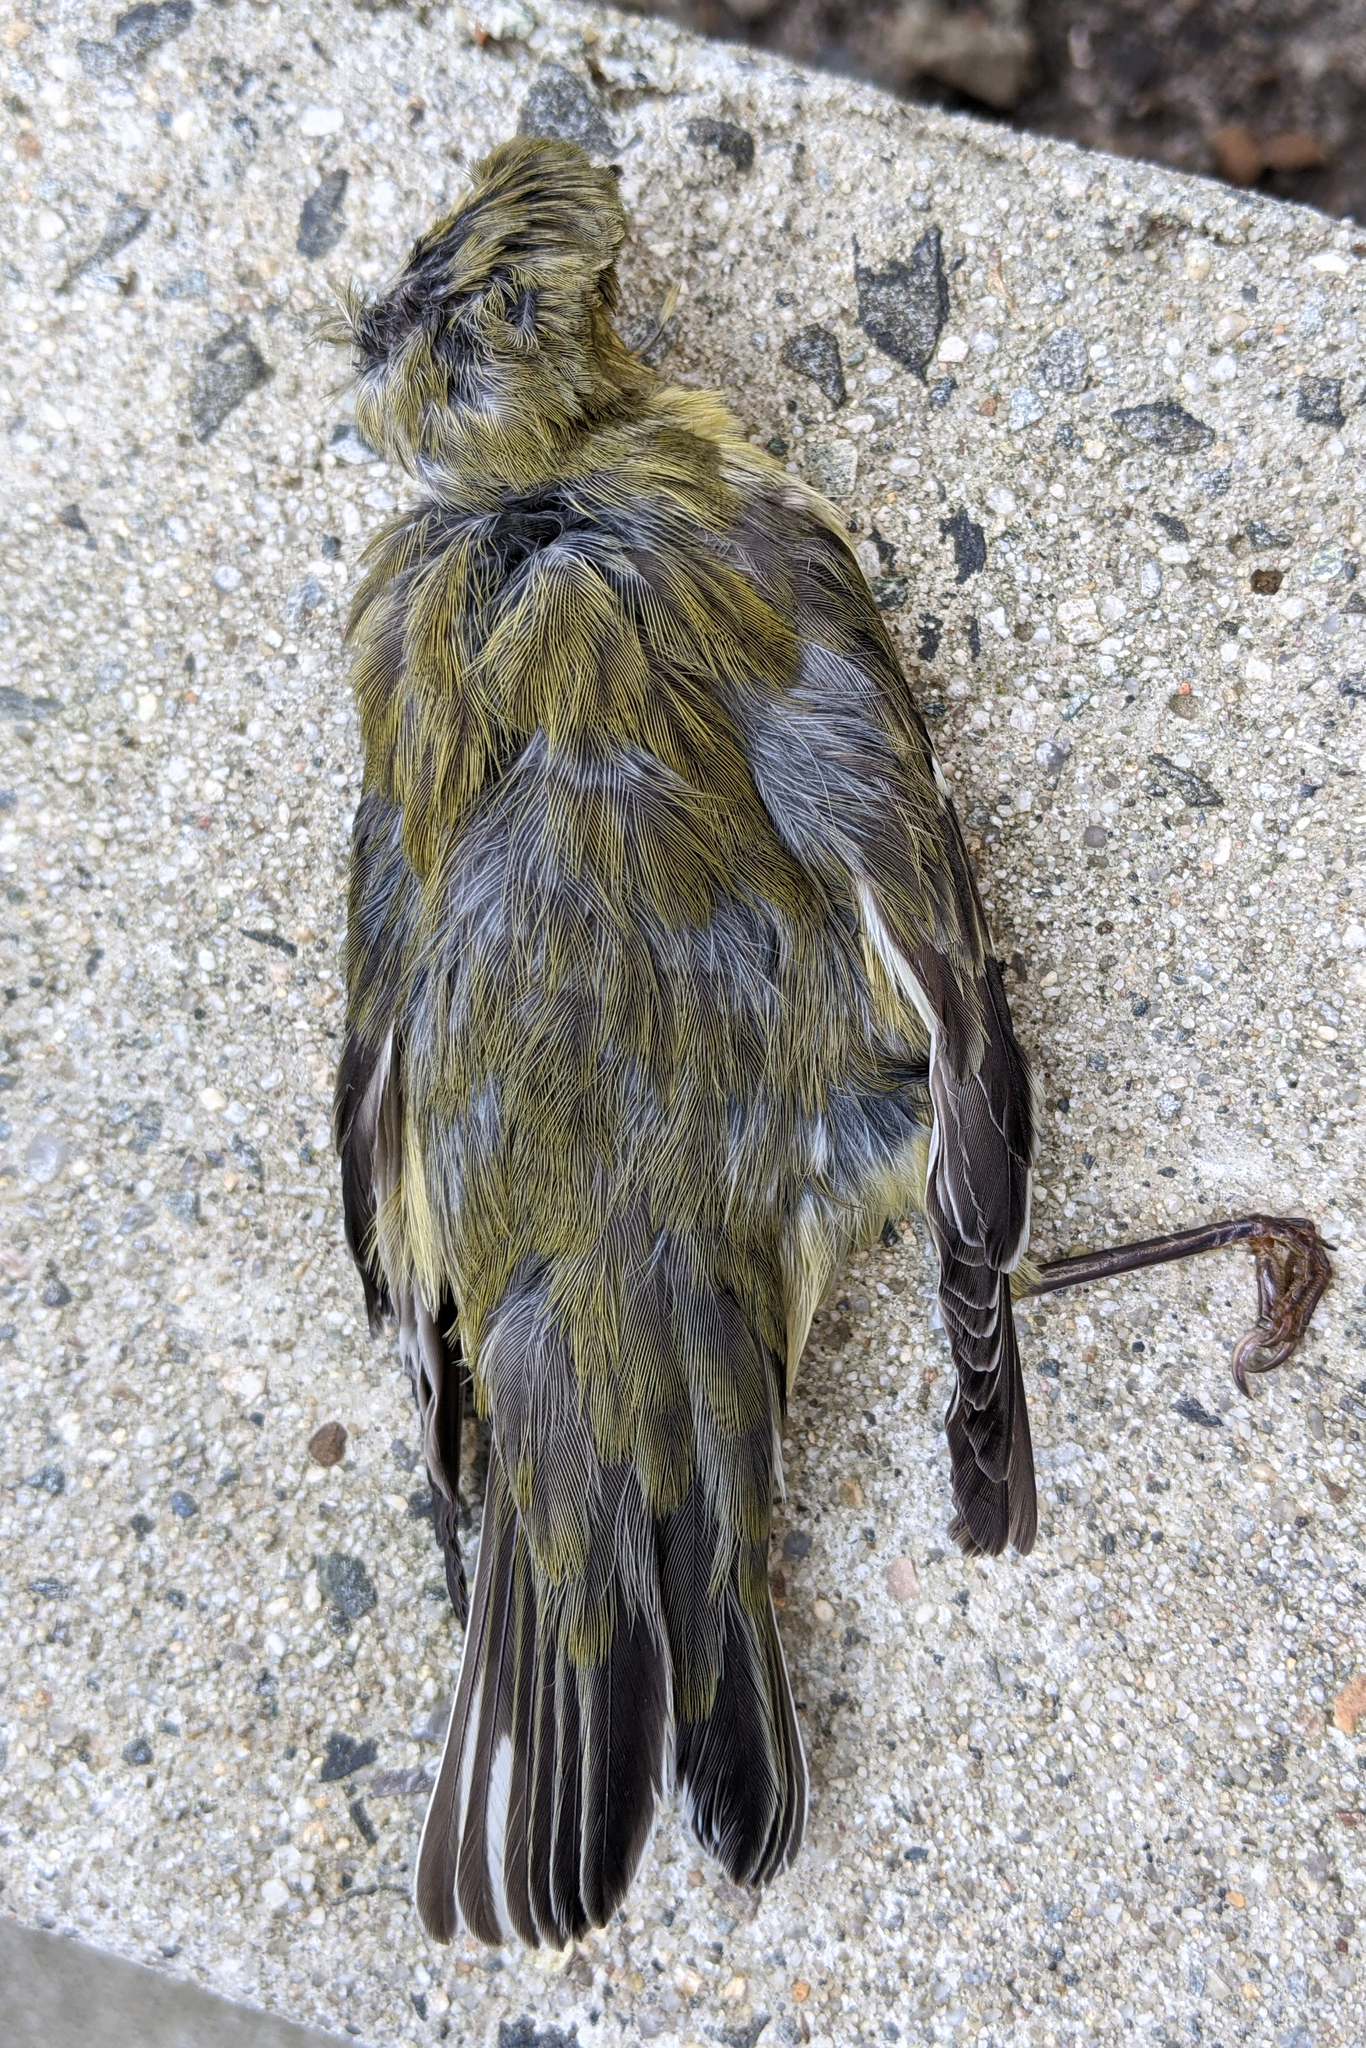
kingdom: Animalia
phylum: Chordata
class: Aves
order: Passeriformes
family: Parulidae
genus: Setophaga
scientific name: Setophaga striata
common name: Blackpoll warbler
